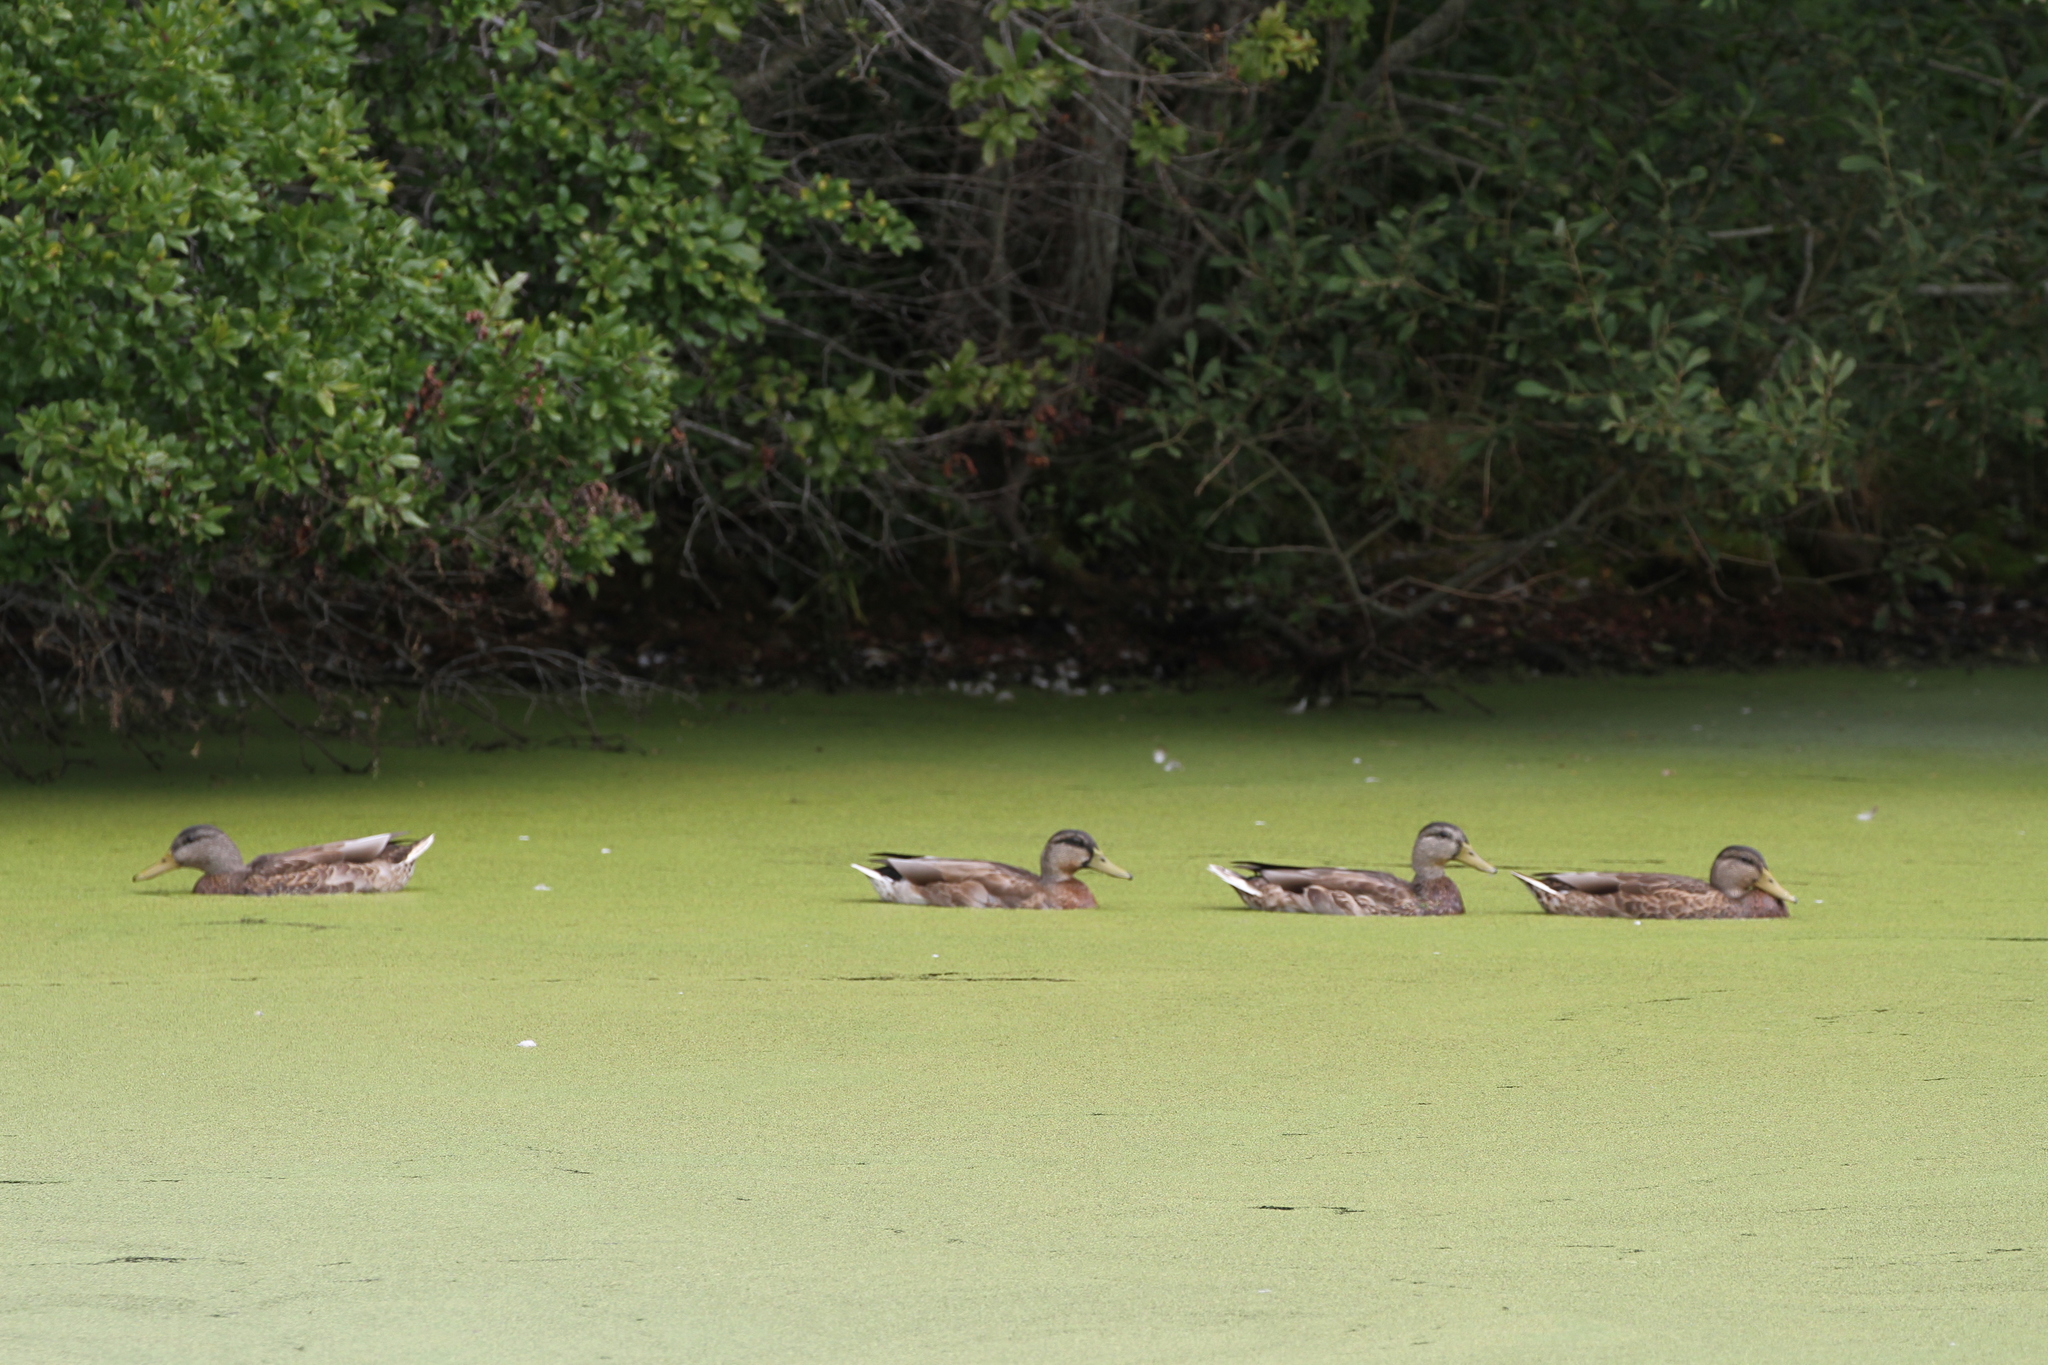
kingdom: Animalia
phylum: Chordata
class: Aves
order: Anseriformes
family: Anatidae
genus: Anas
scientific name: Anas platyrhynchos
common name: Mallard
